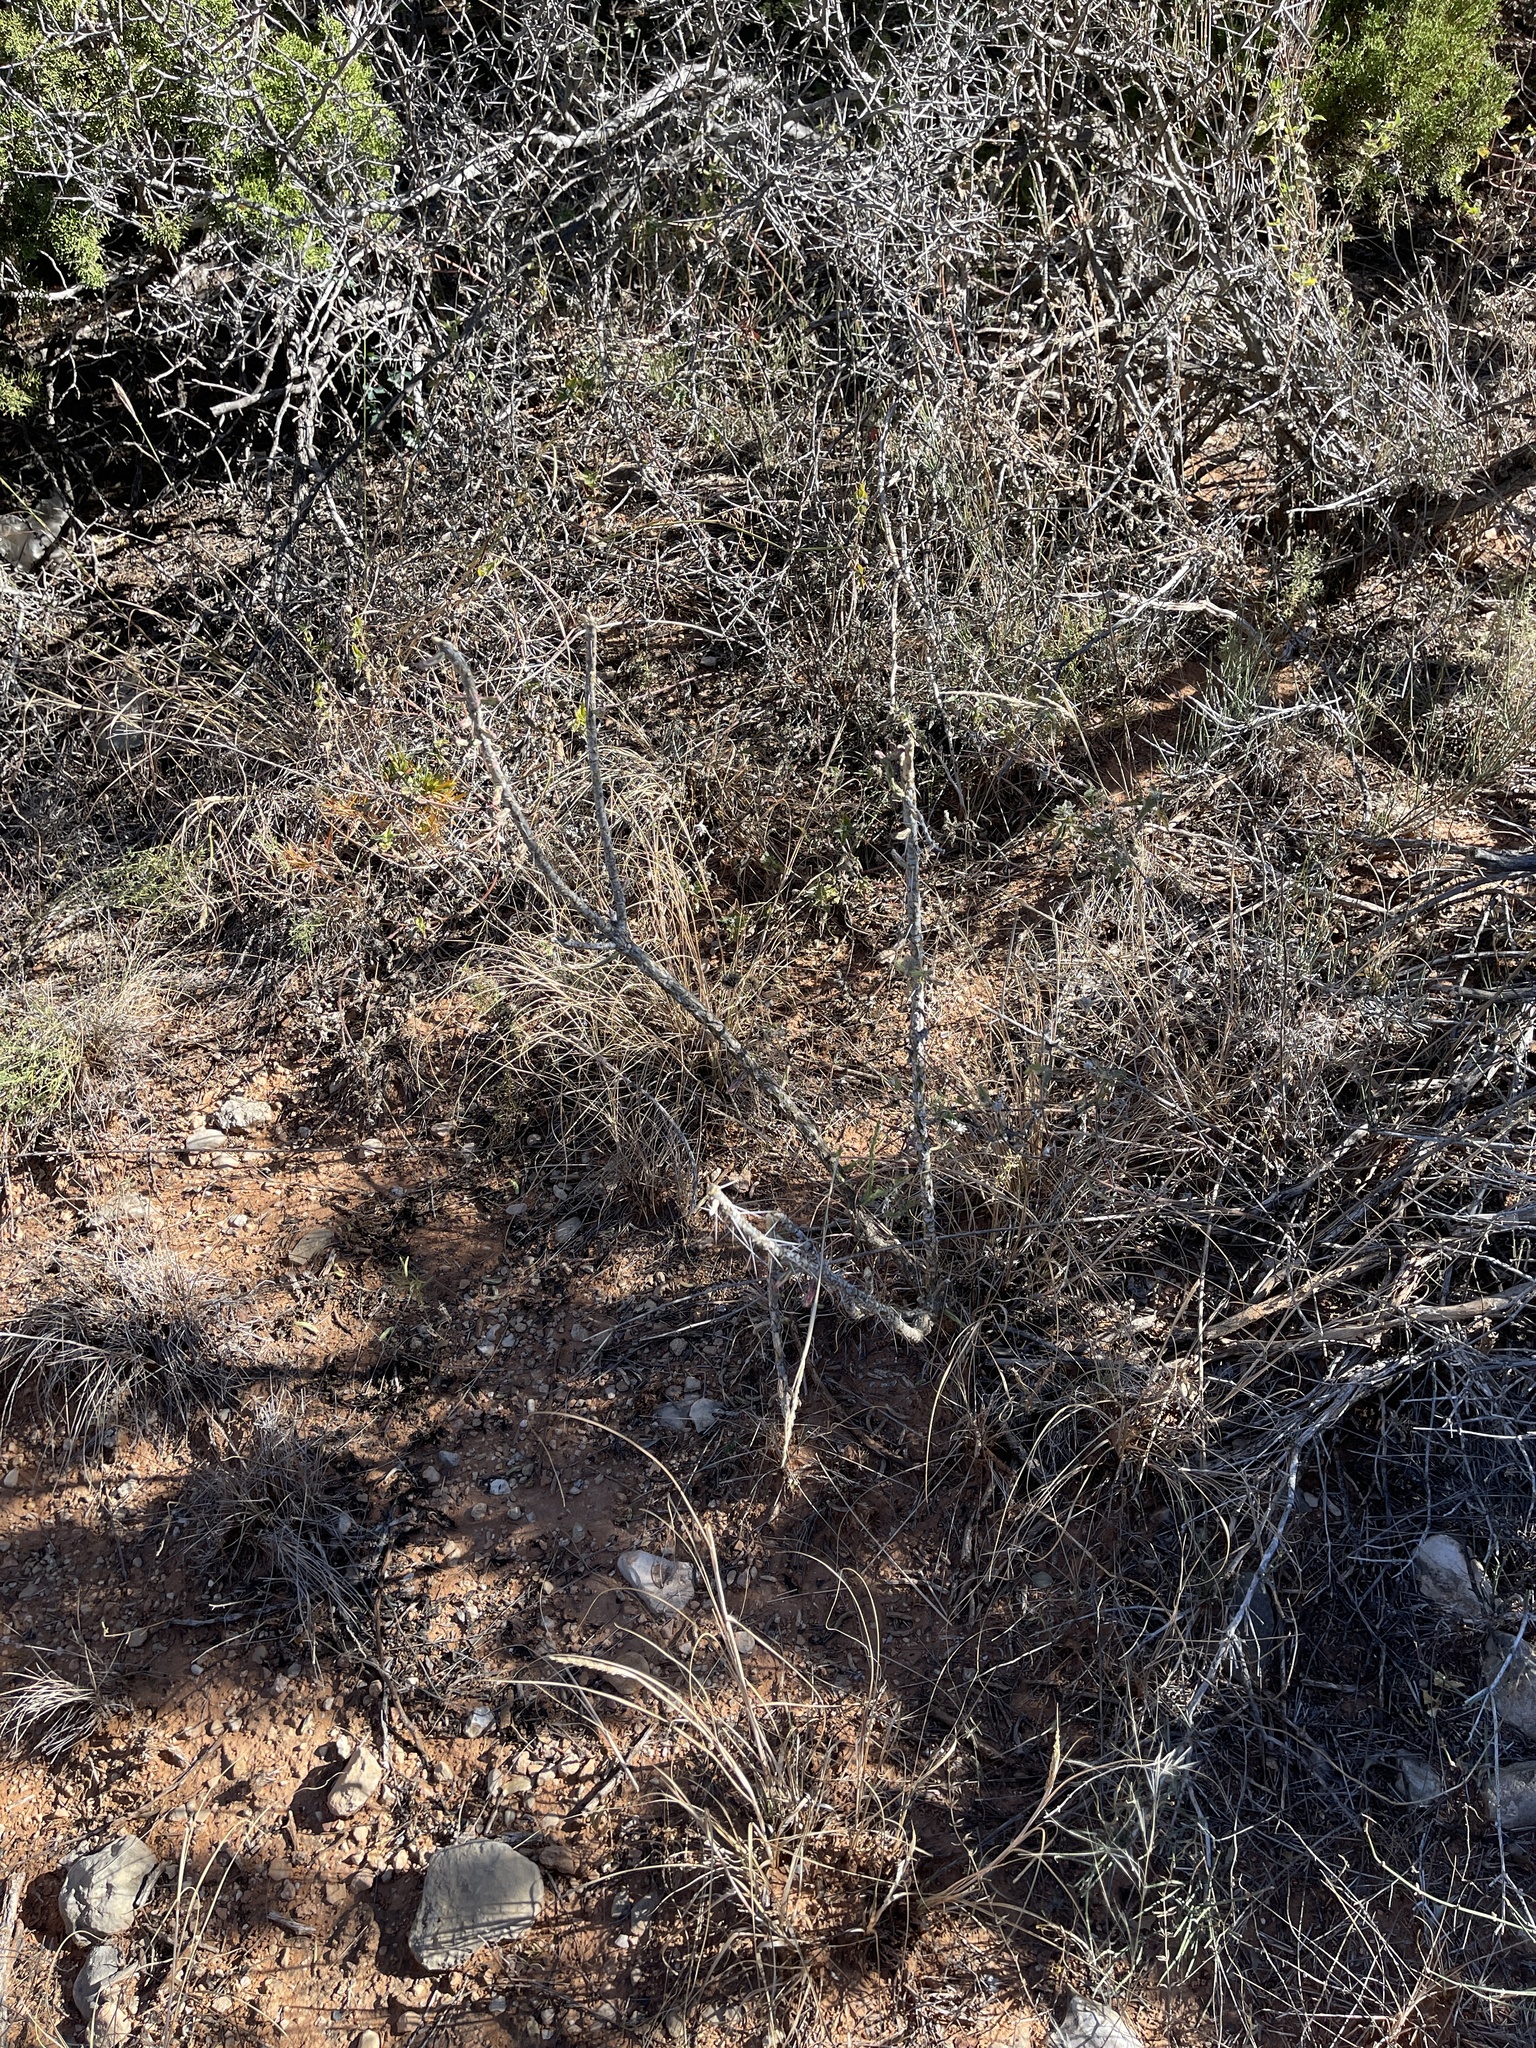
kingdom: Plantae
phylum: Tracheophyta
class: Magnoliopsida
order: Caryophyllales
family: Cactaceae
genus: Cylindropuntia
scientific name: Cylindropuntia leptocaulis
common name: Christmas cactus
